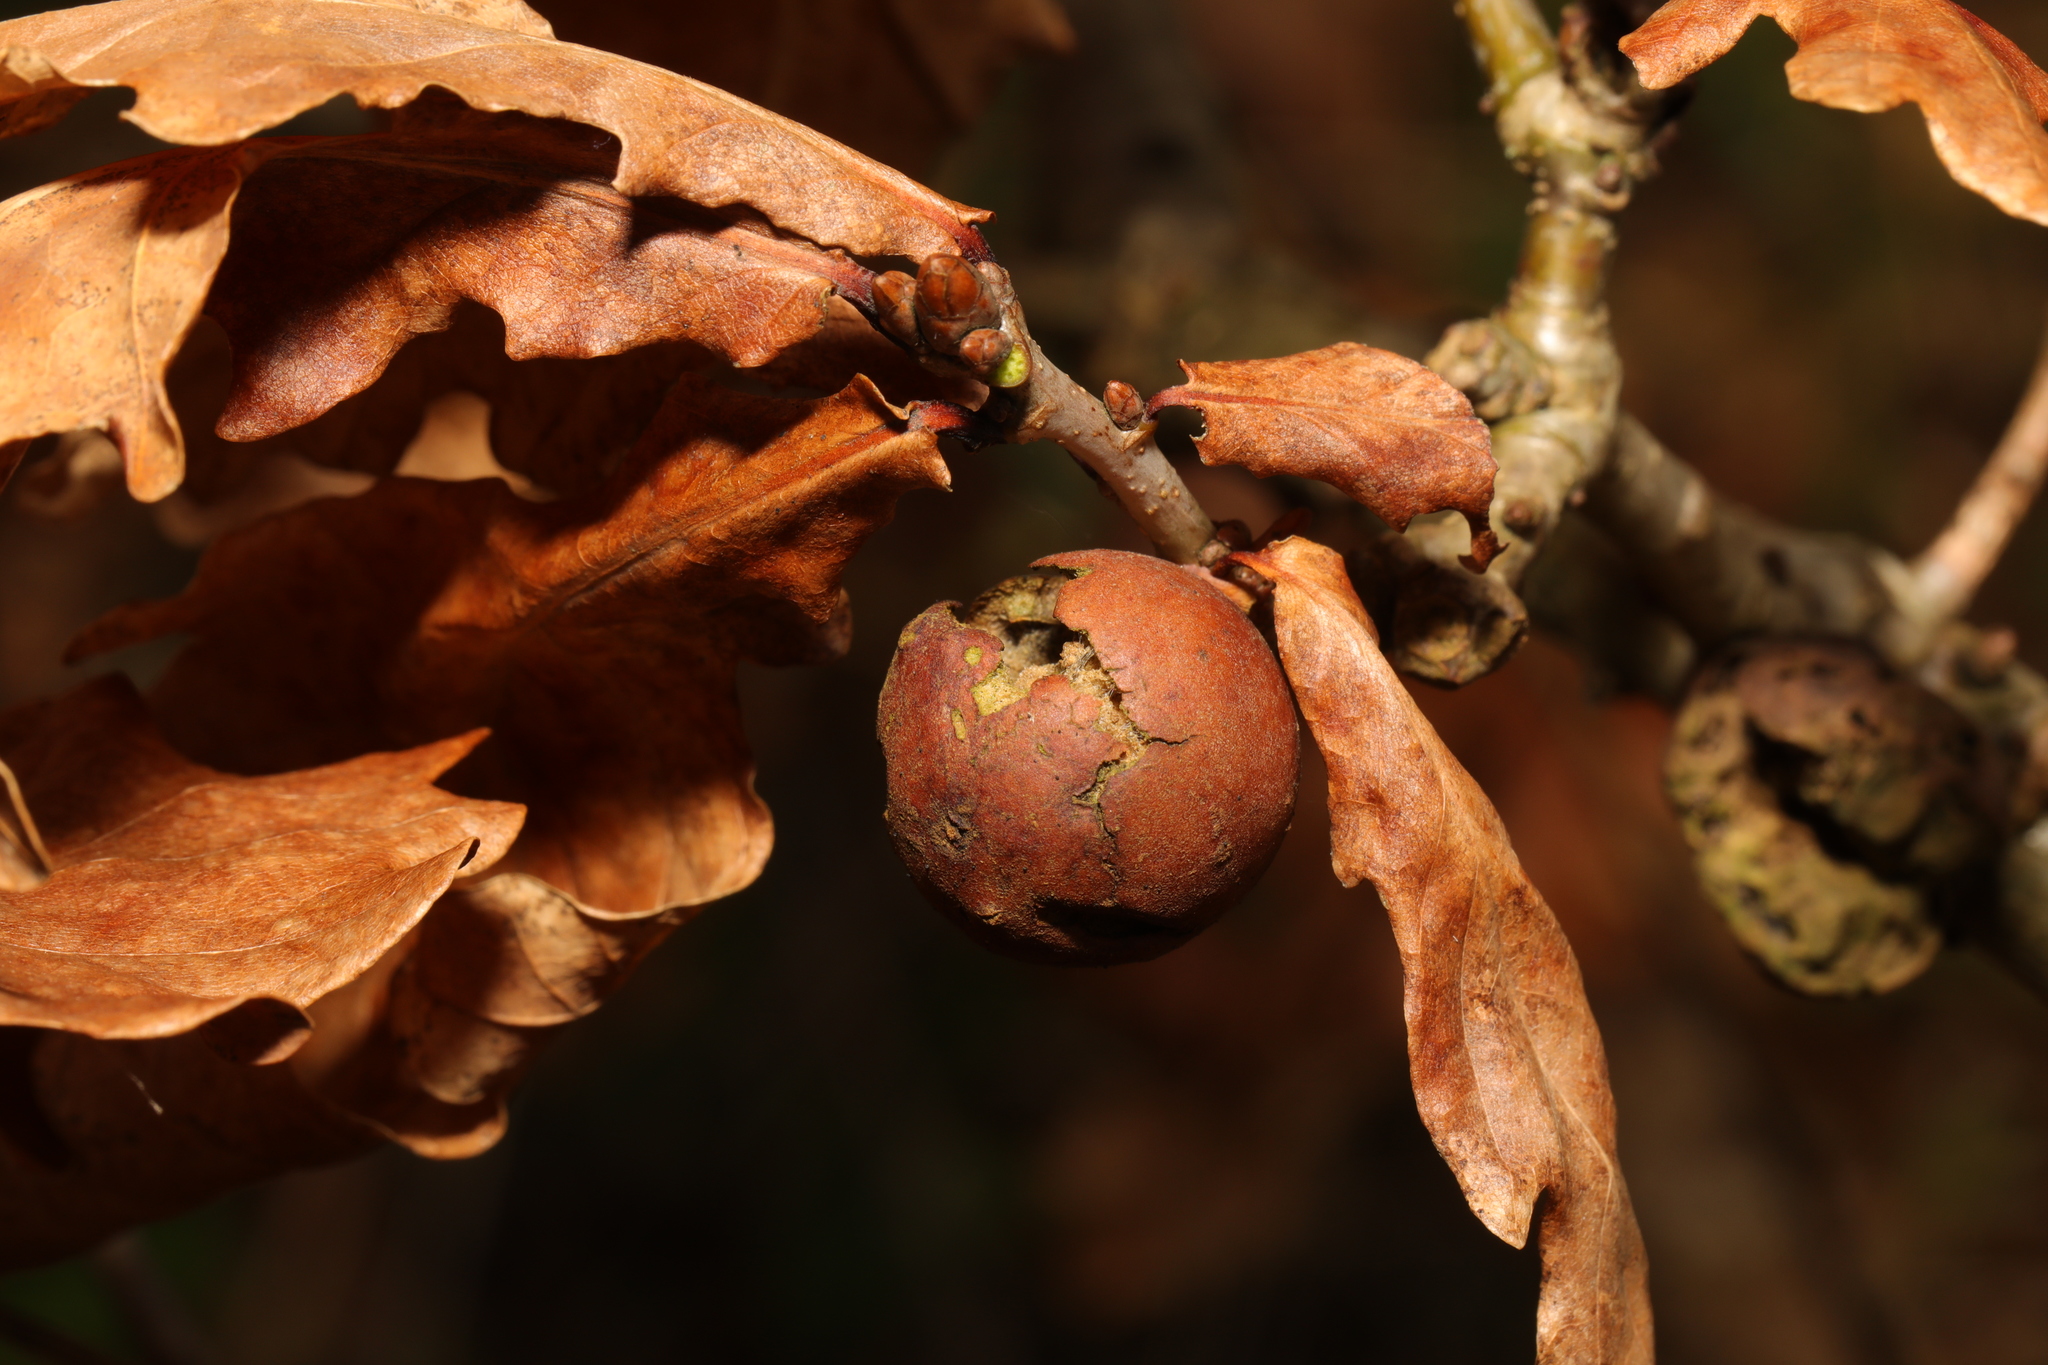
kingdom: Animalia
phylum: Arthropoda
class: Insecta
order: Hymenoptera
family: Cynipidae
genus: Andricus
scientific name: Andricus kollari
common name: Marble gall
